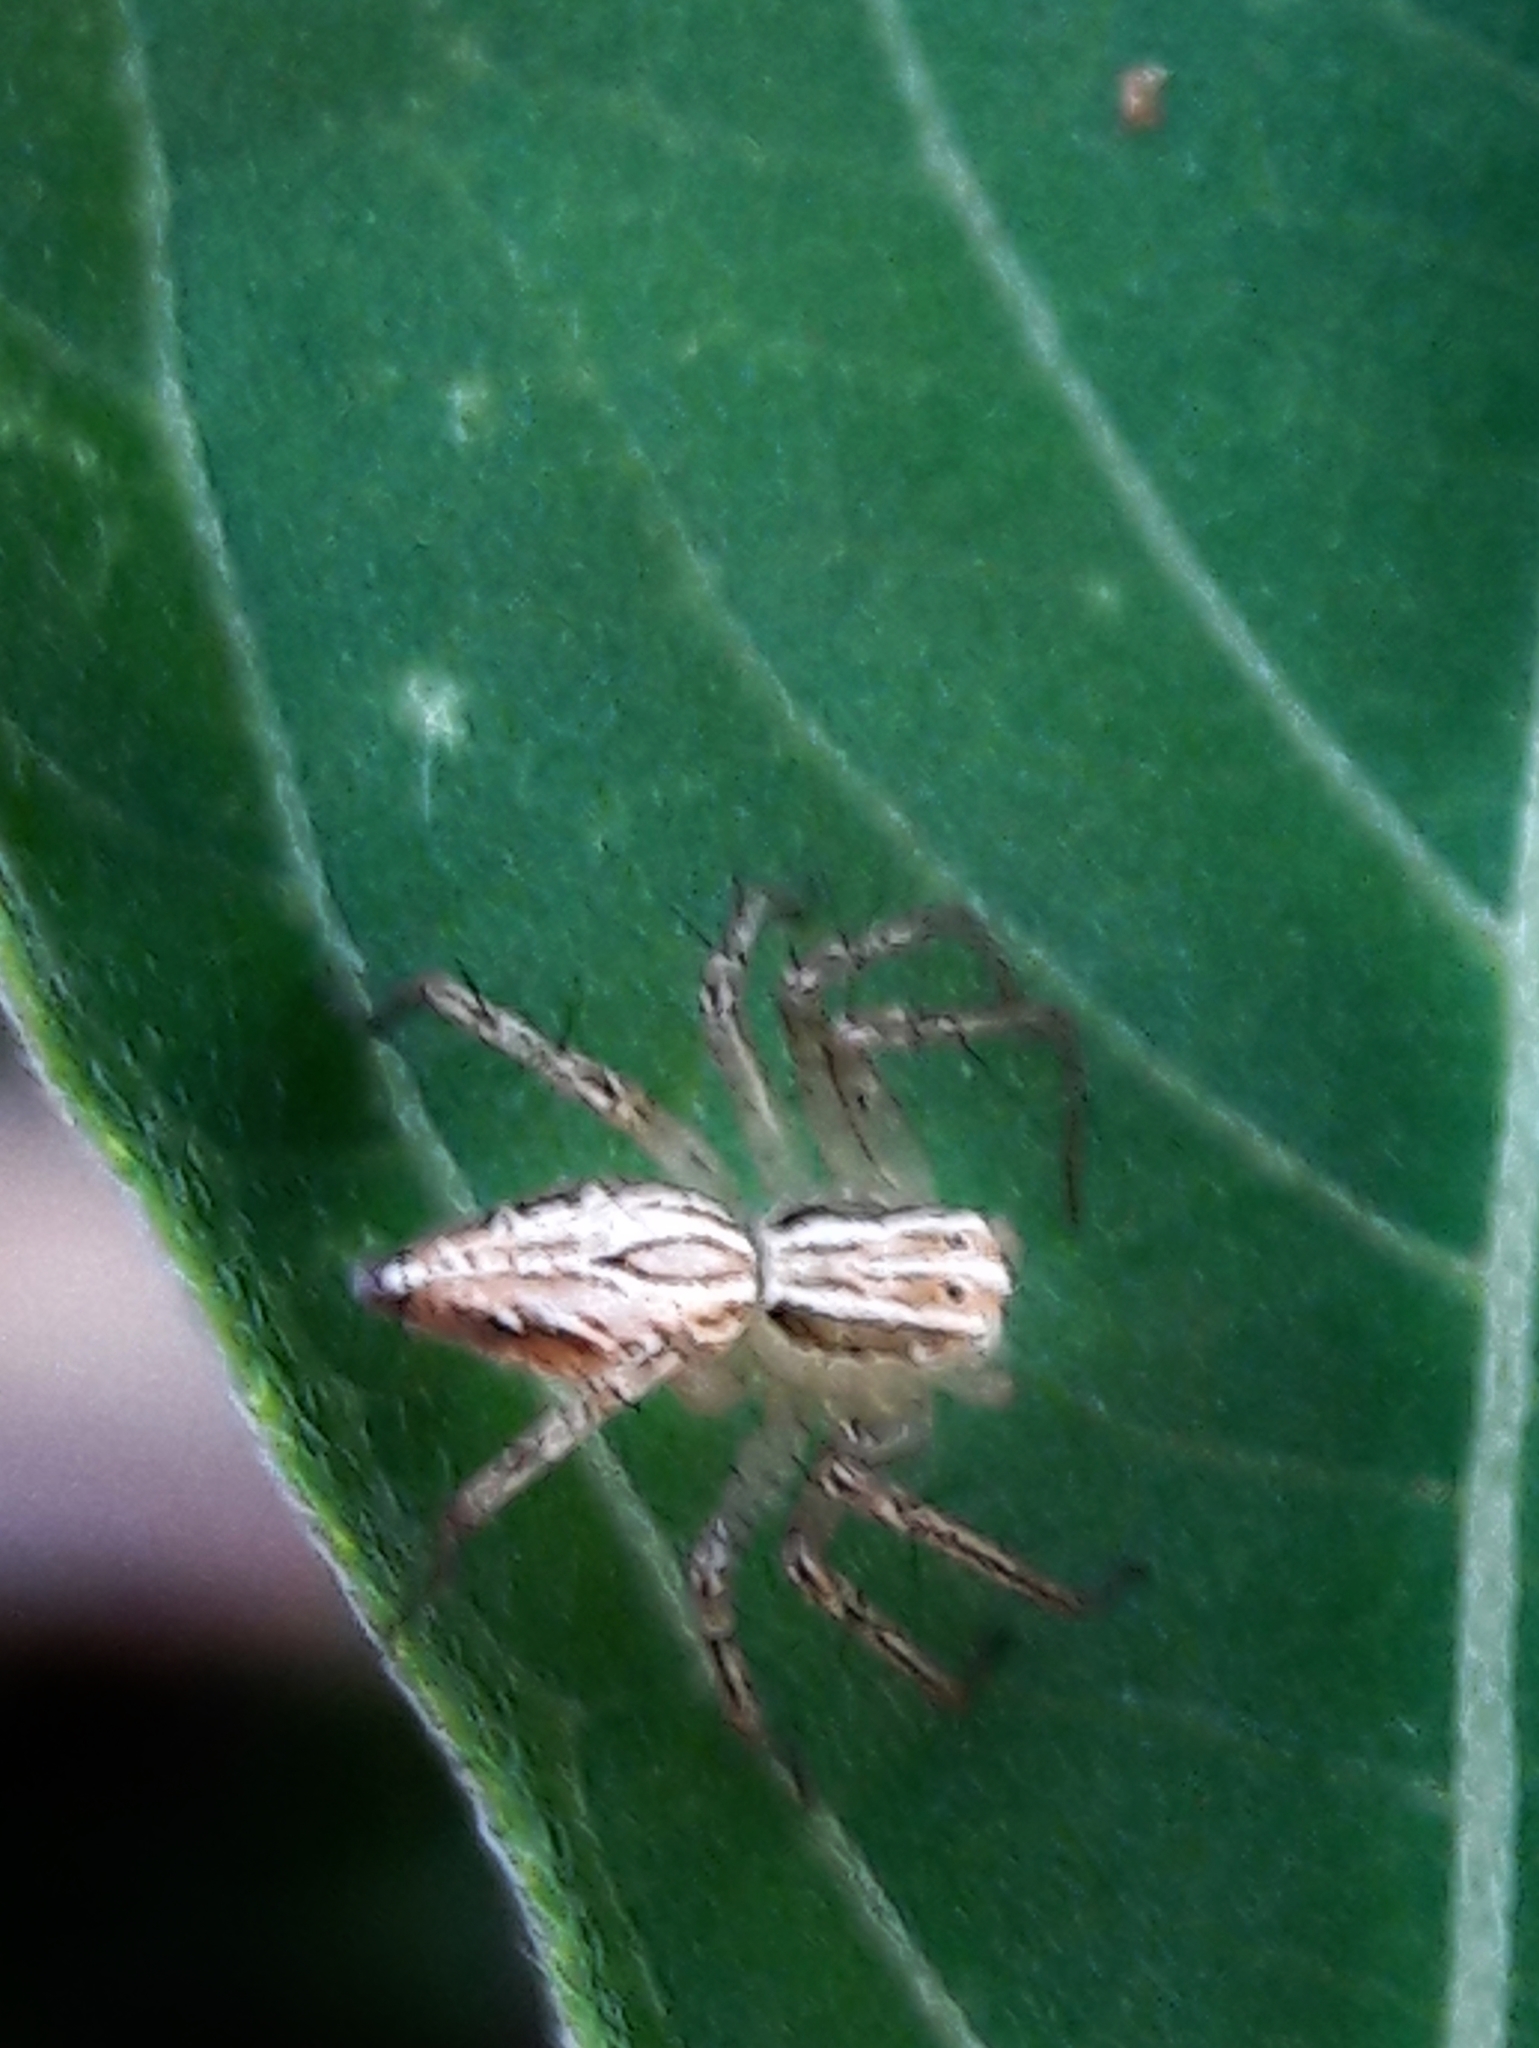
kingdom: Animalia
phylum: Arthropoda
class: Arachnida
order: Araneae
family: Oxyopidae
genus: Oxyopes
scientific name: Oxyopes salticus
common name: Lynx spiders
